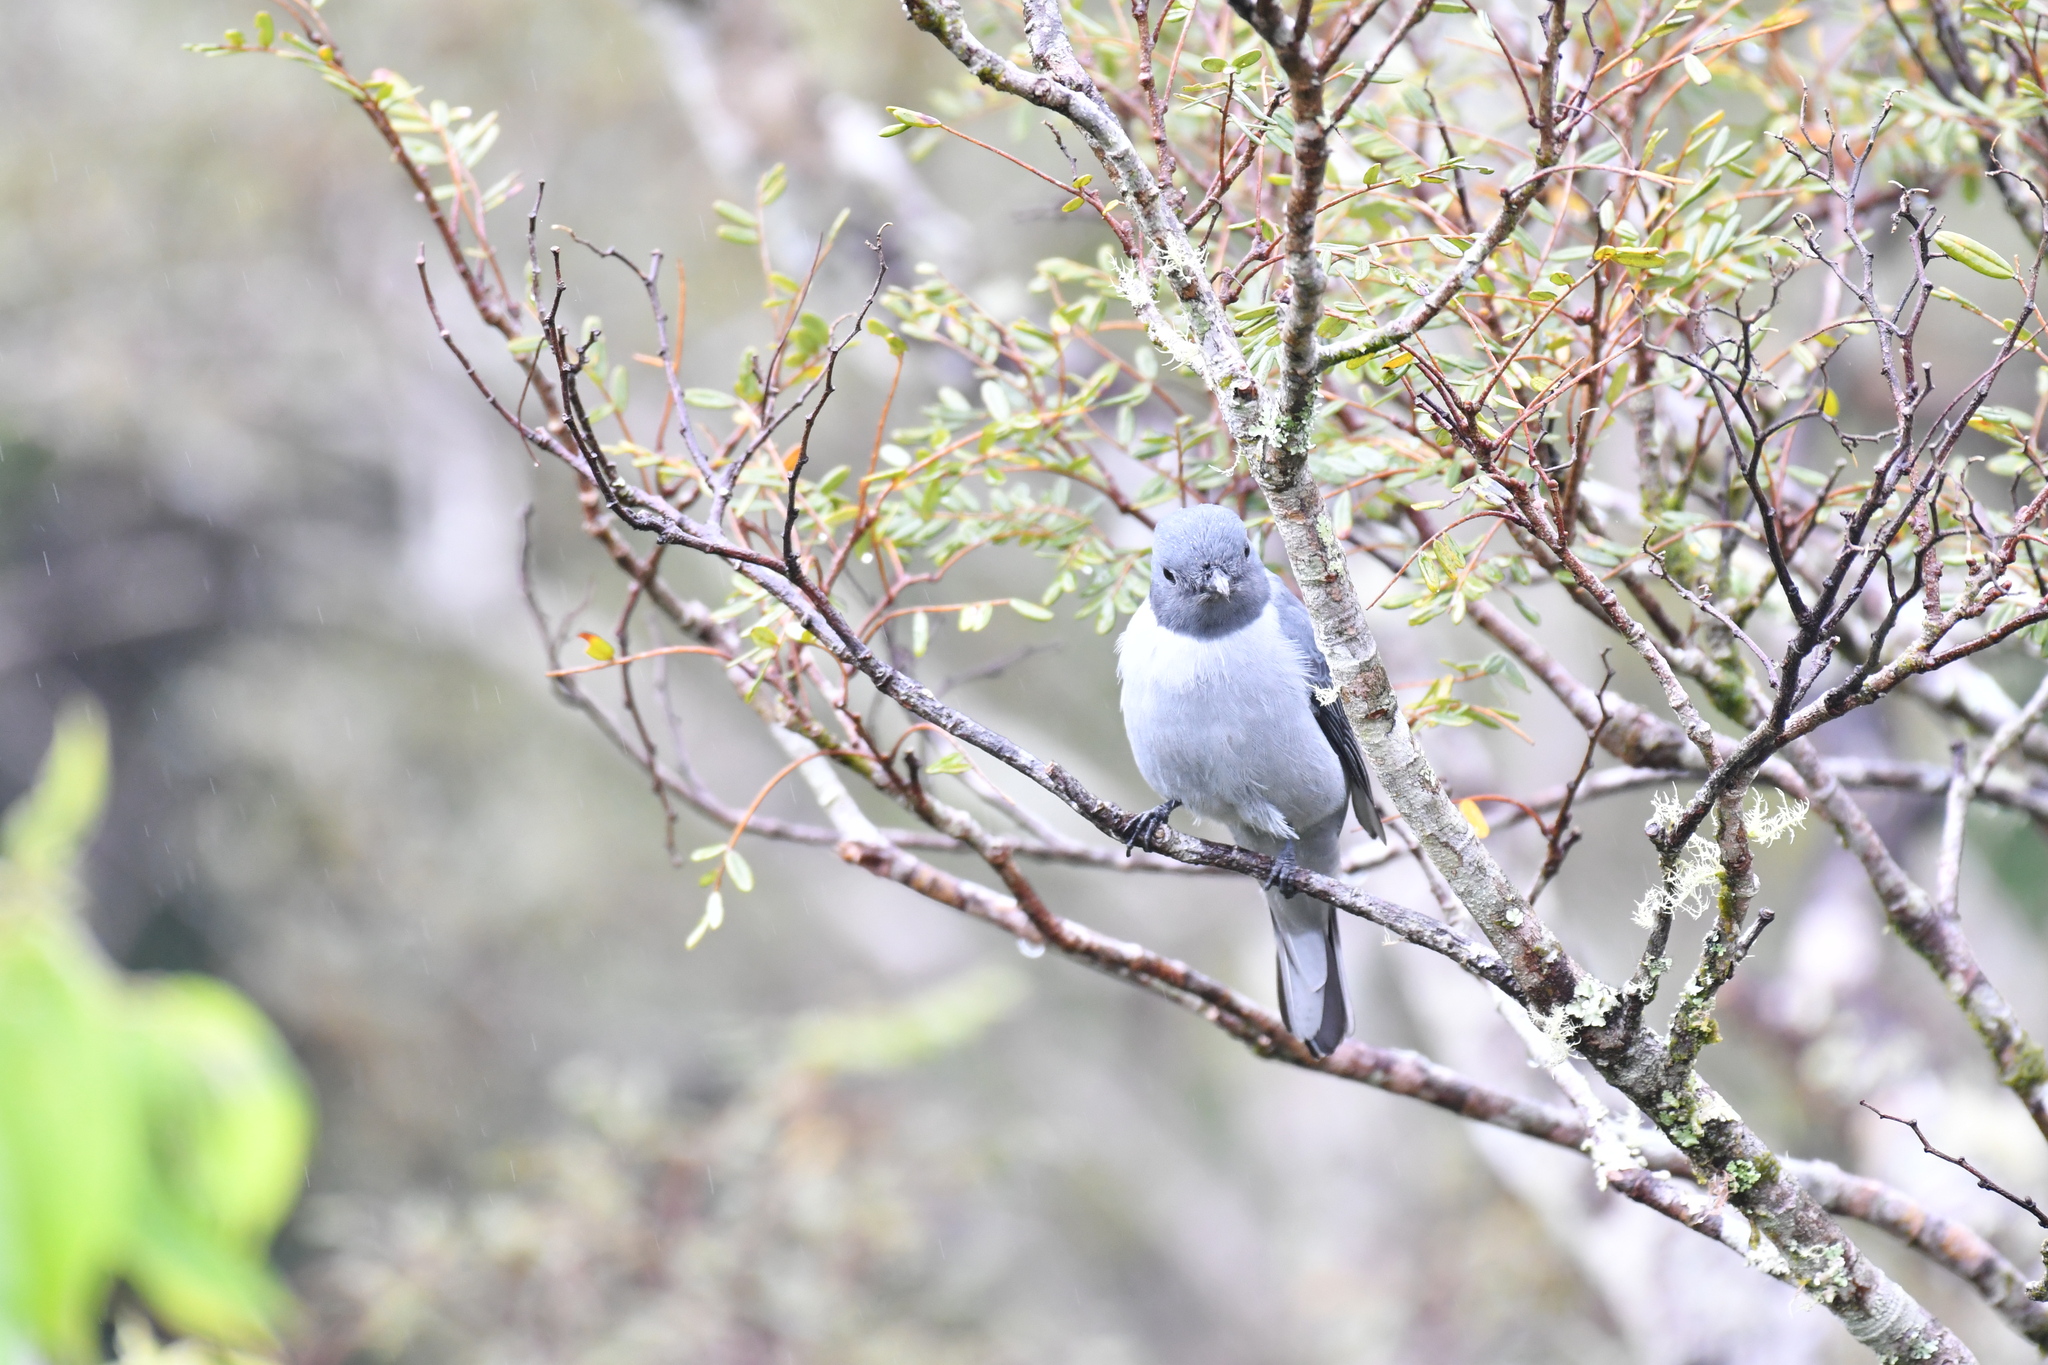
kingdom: Animalia
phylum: Chordata
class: Aves
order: Passeriformes
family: Campephagidae
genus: Coracina
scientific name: Coracina cinerea
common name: Madagascan cuckooshrike
